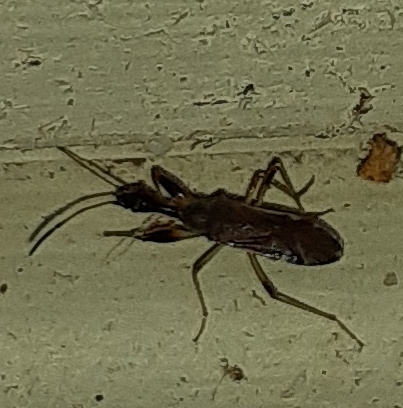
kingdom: Animalia
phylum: Arthropoda
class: Insecta
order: Hemiptera
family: Rhyparochromidae
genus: Myodocha
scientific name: Myodocha serripes
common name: Long-necked seed bug
